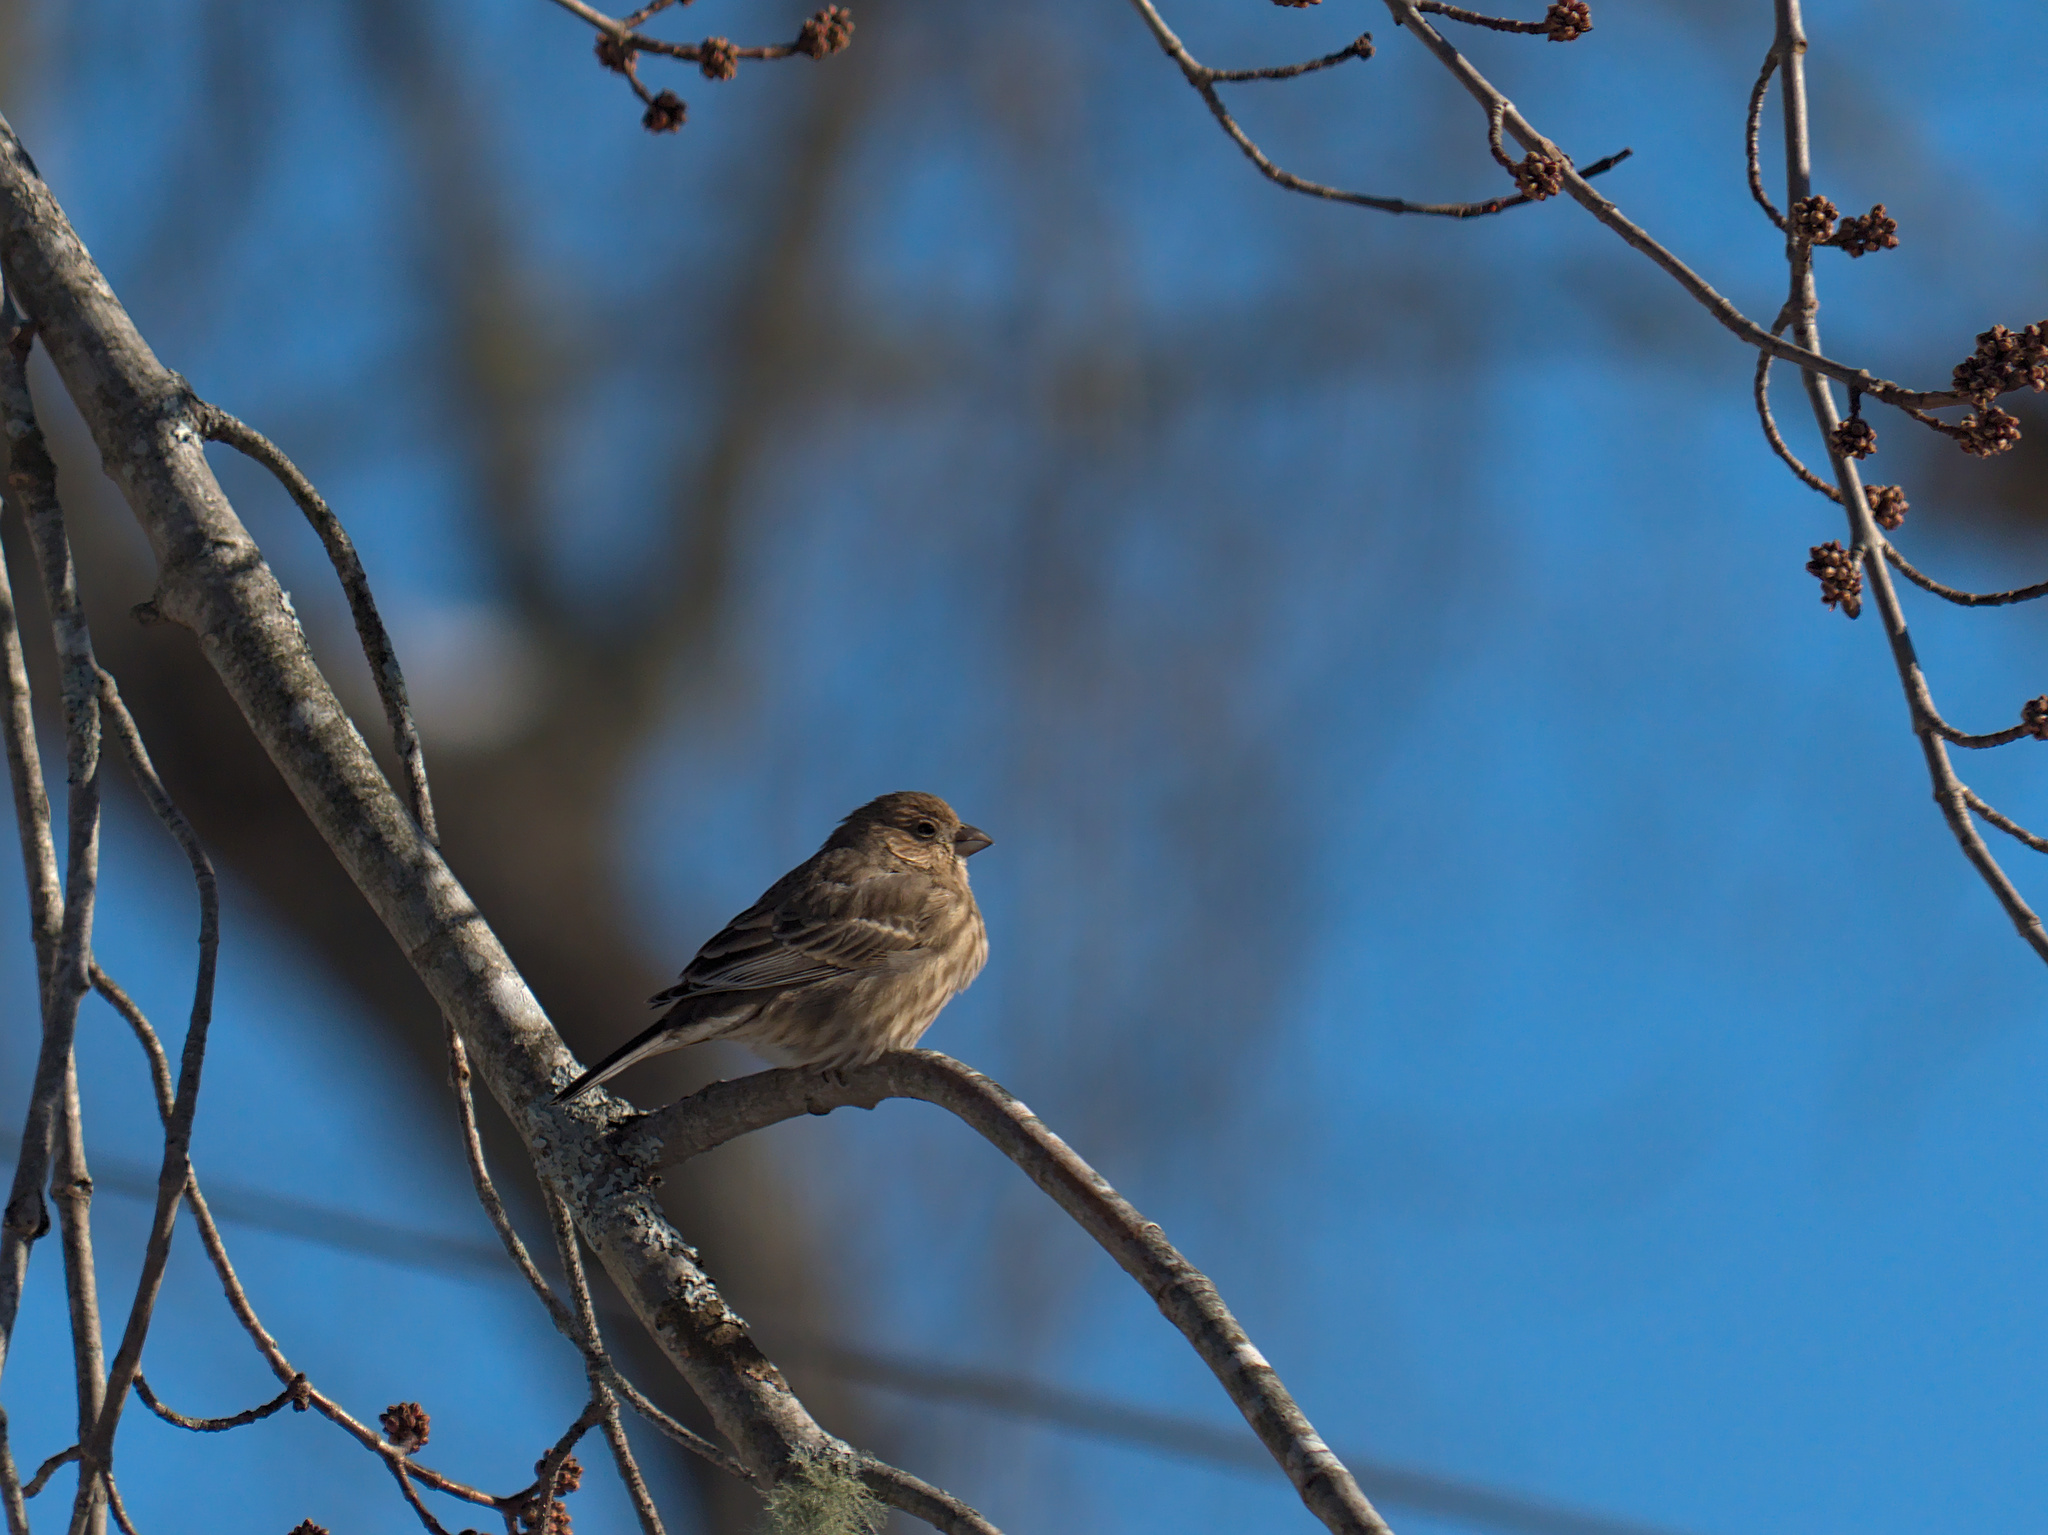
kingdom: Animalia
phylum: Chordata
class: Aves
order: Passeriformes
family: Fringillidae
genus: Haemorhous
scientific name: Haemorhous mexicanus
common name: House finch
